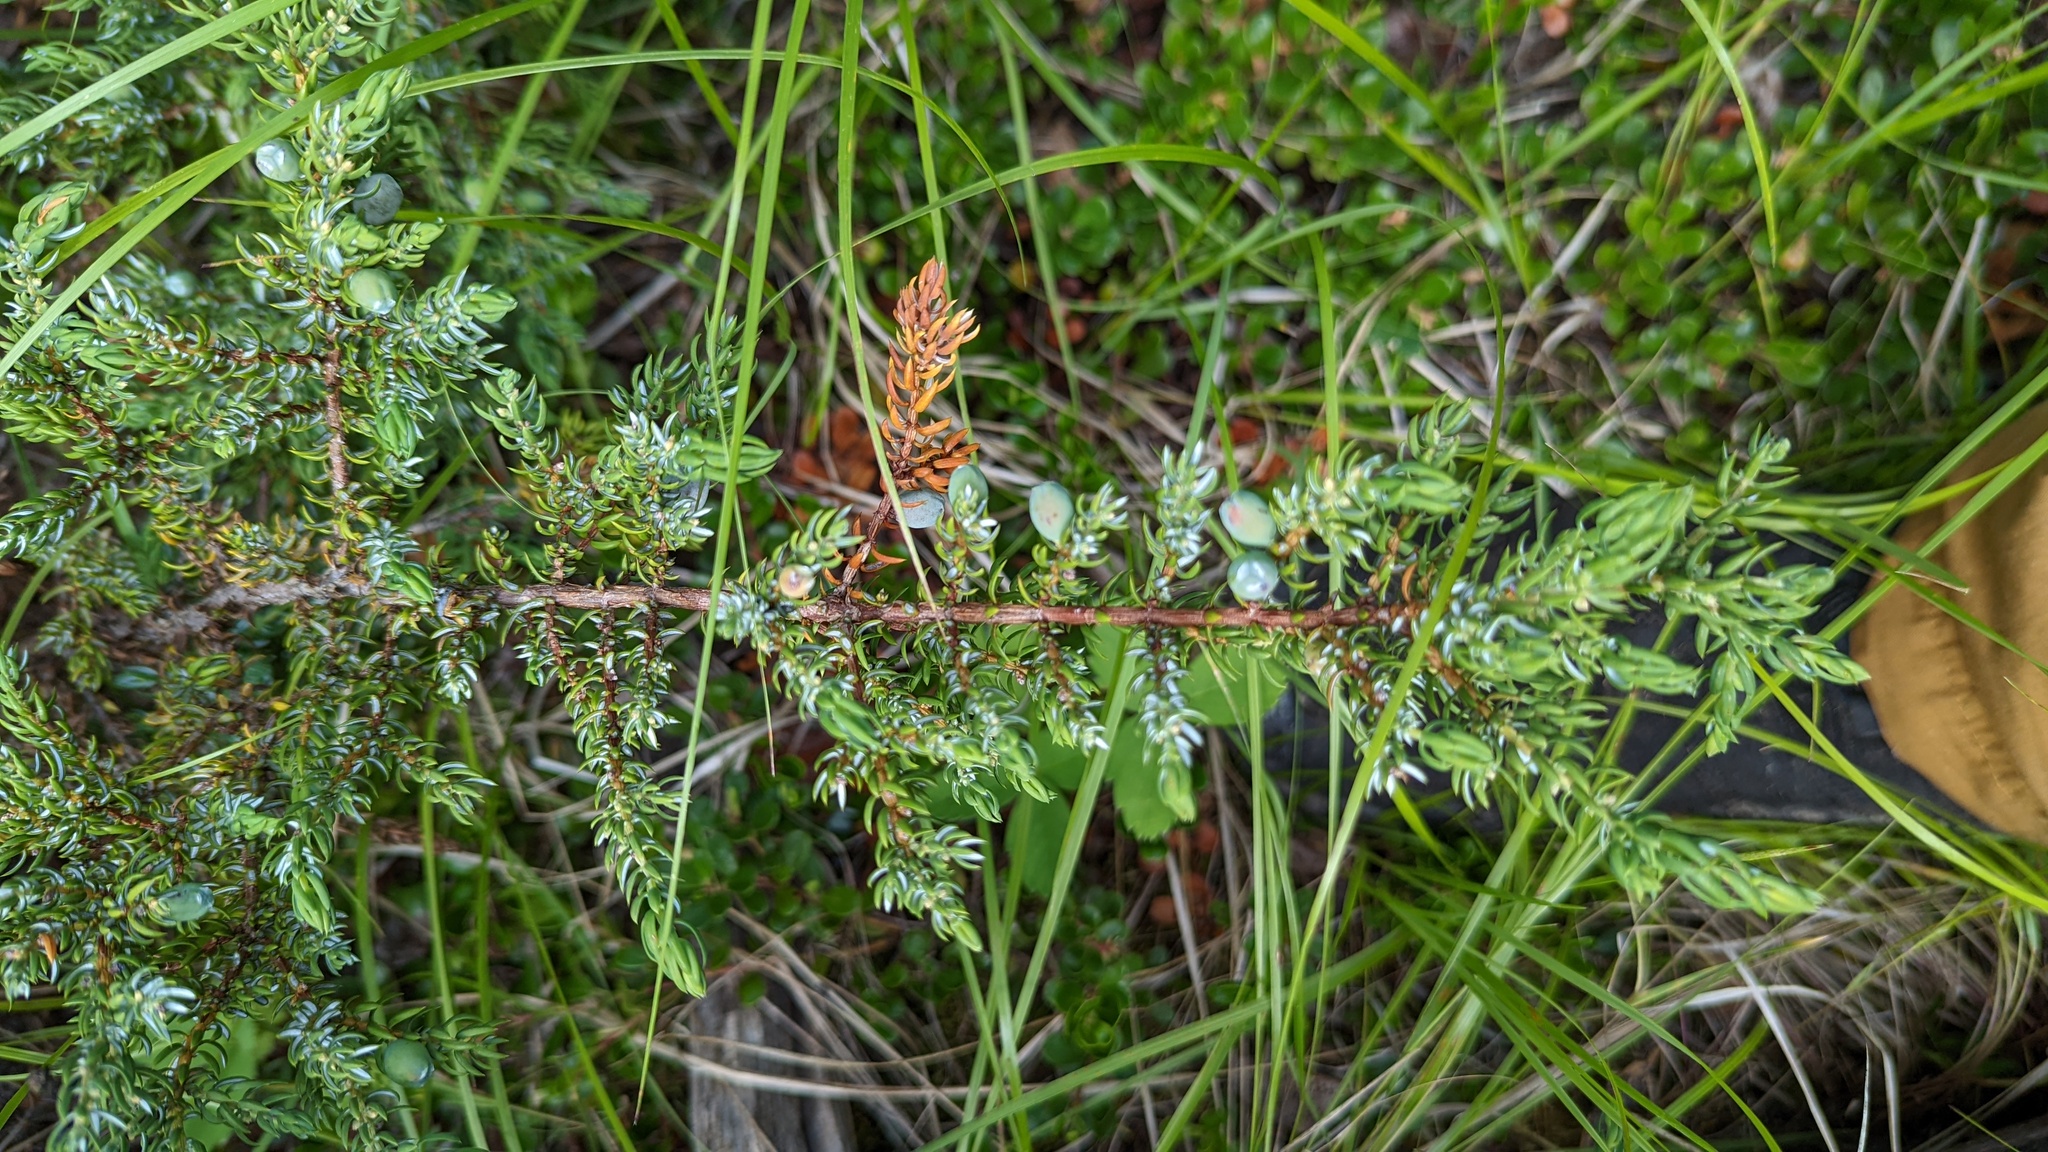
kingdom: Plantae
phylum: Tracheophyta
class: Pinopsida
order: Pinales
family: Cupressaceae
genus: Juniperus
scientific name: Juniperus communis
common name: Common juniper
